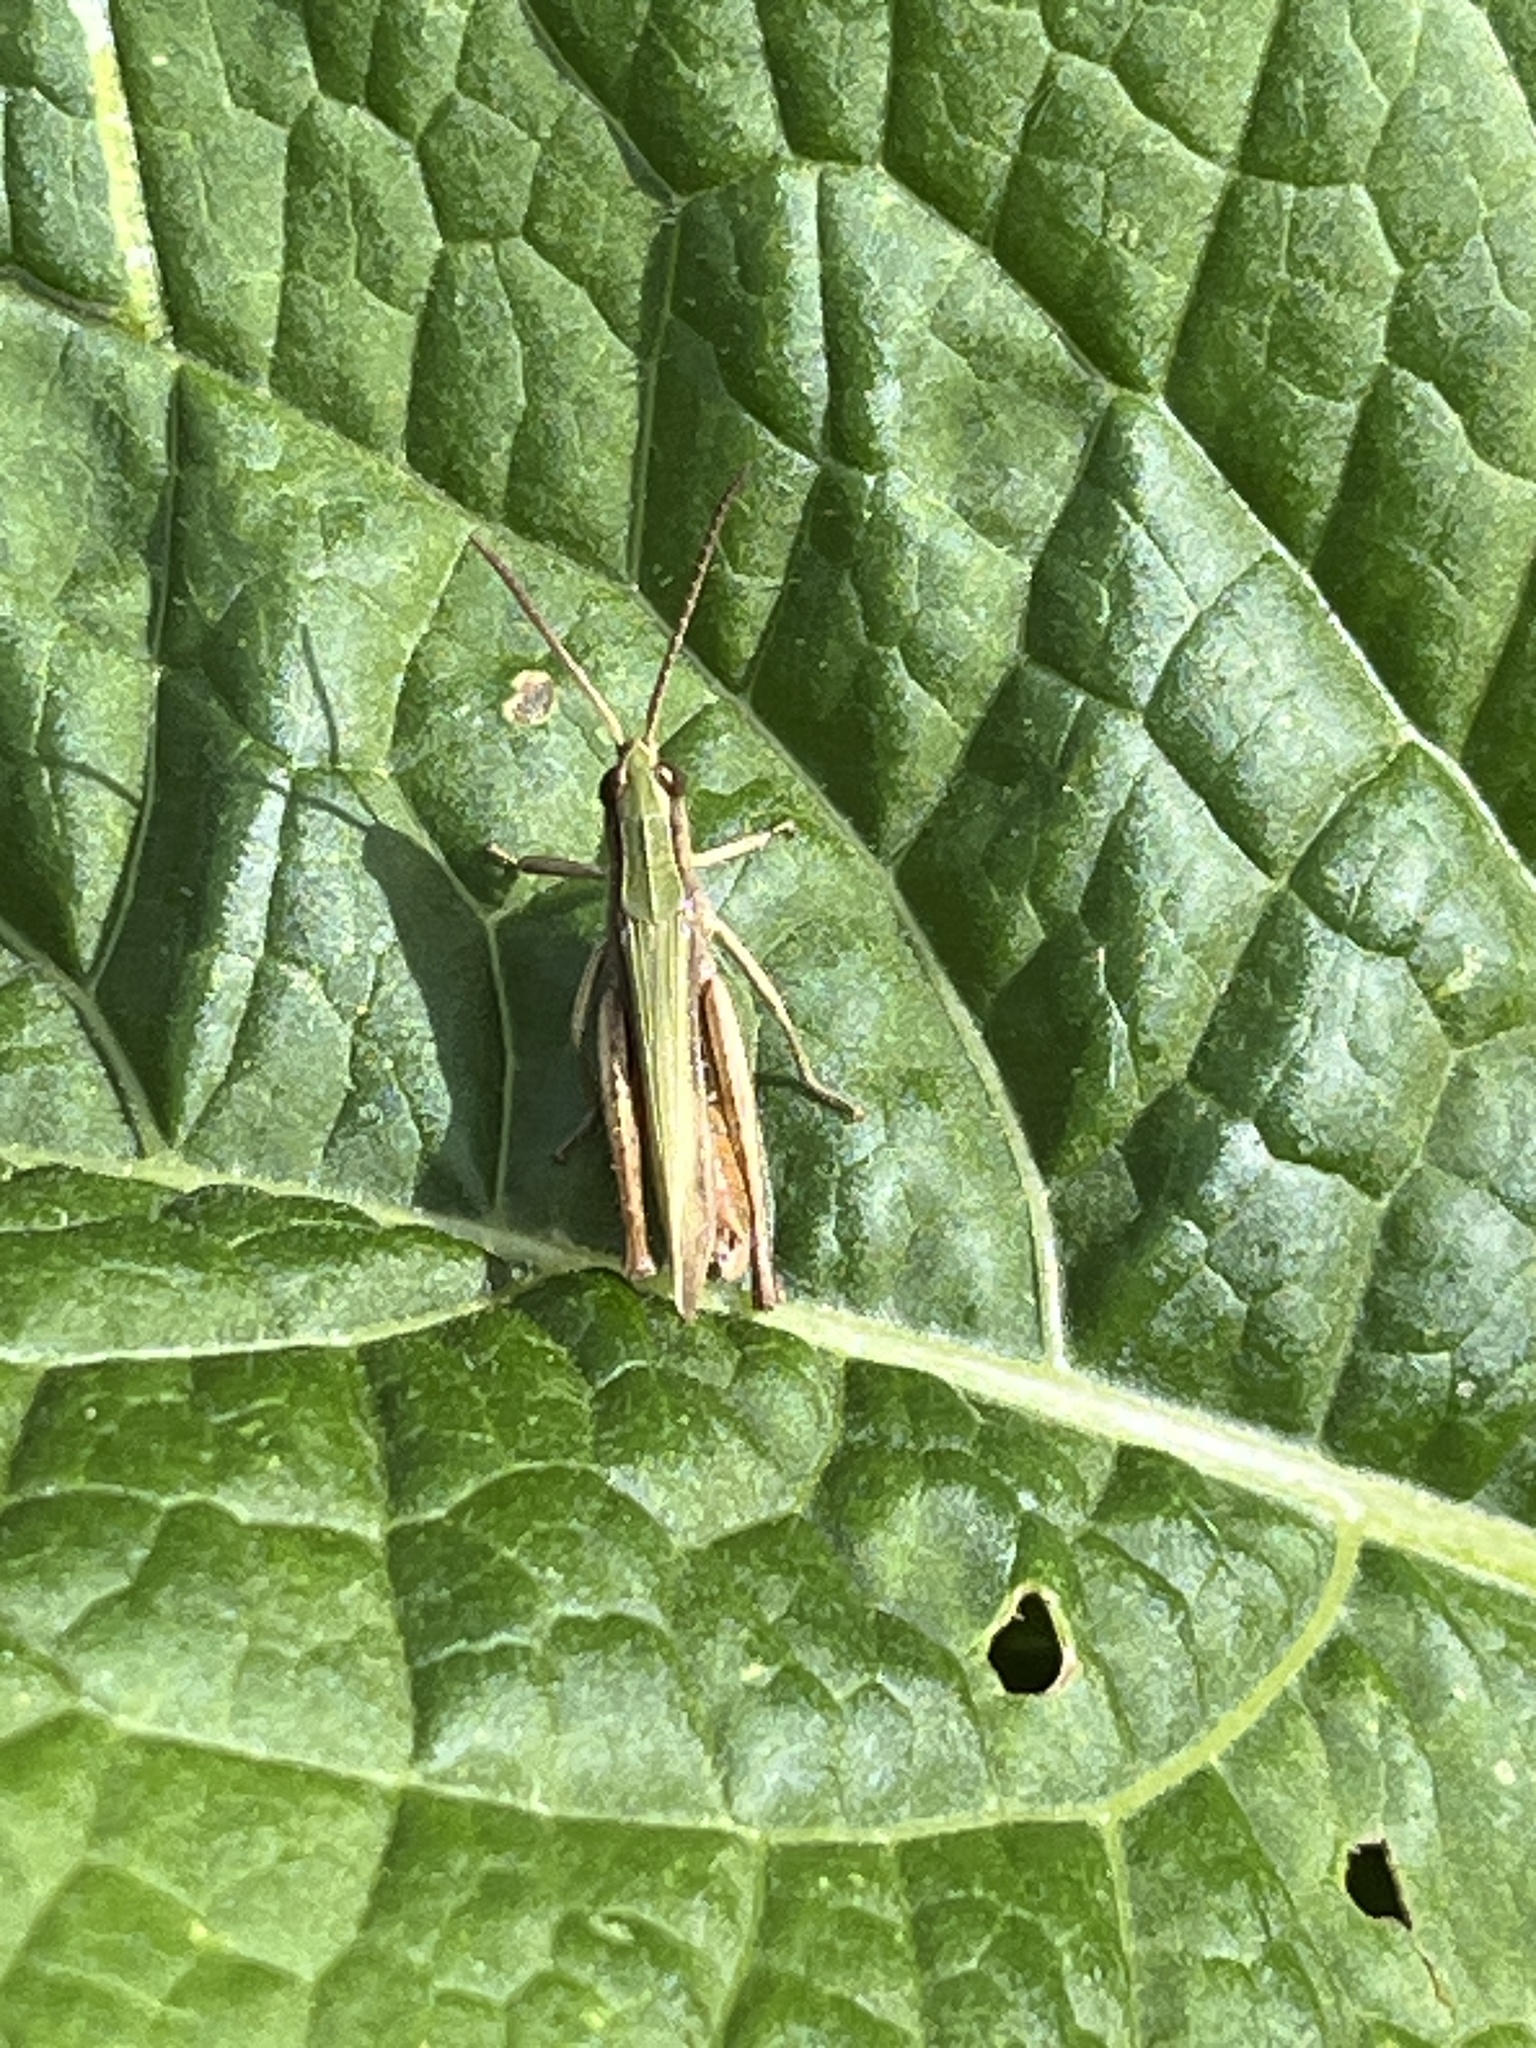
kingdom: Animalia
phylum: Arthropoda
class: Insecta
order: Orthoptera
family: Acrididae
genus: Chorthippus
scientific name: Chorthippus dorsatus
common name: Steppe grasshopper
